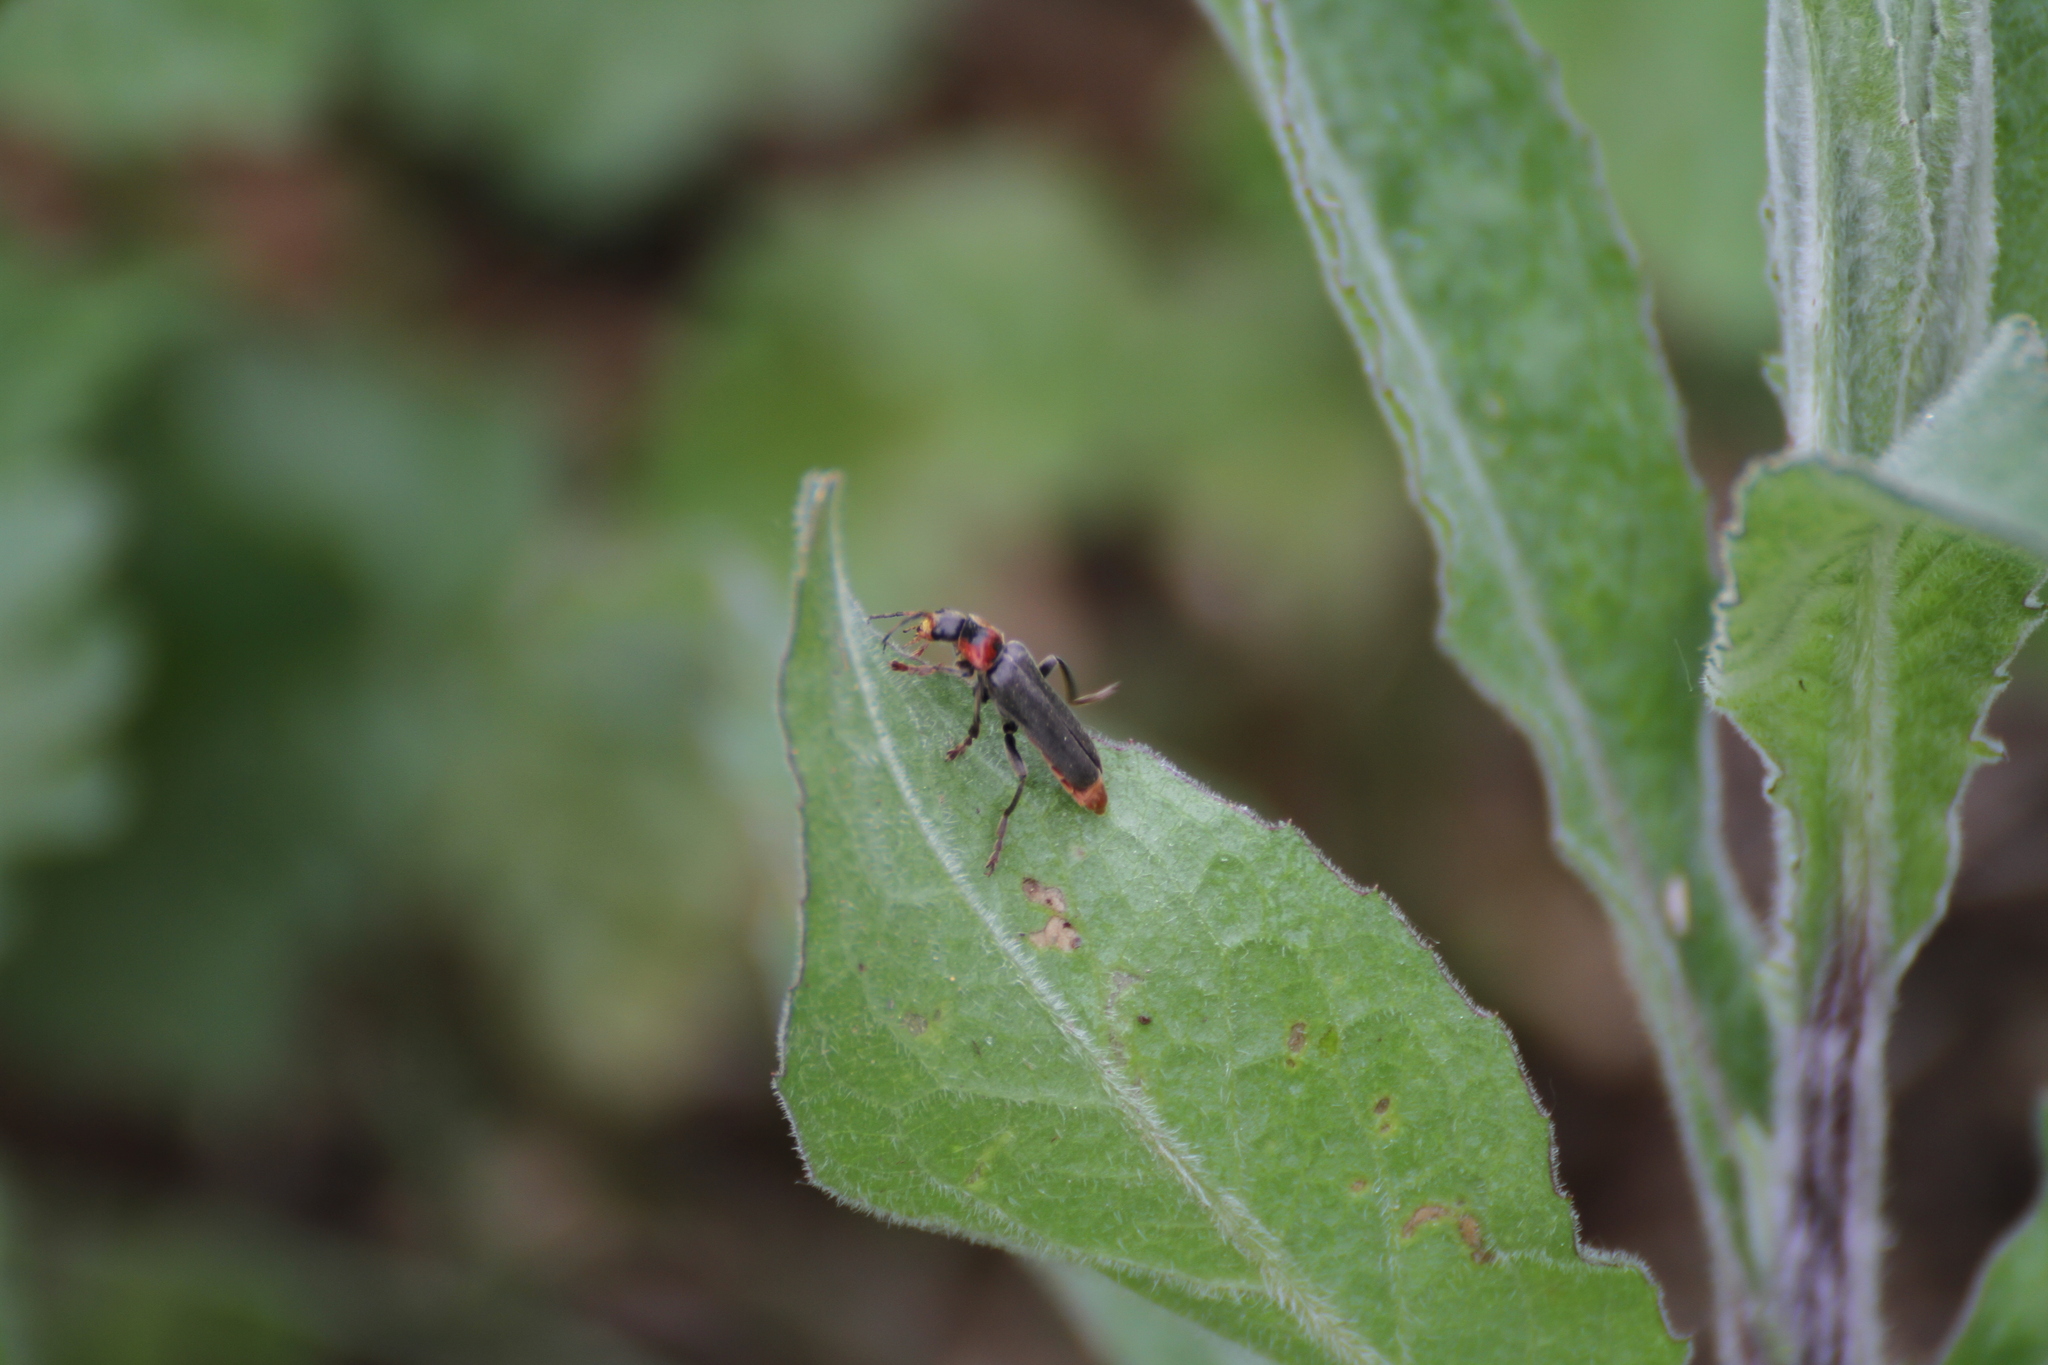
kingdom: Animalia
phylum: Arthropoda
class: Insecta
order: Coleoptera
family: Cantharidae
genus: Cantharis
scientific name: Cantharis fusca
